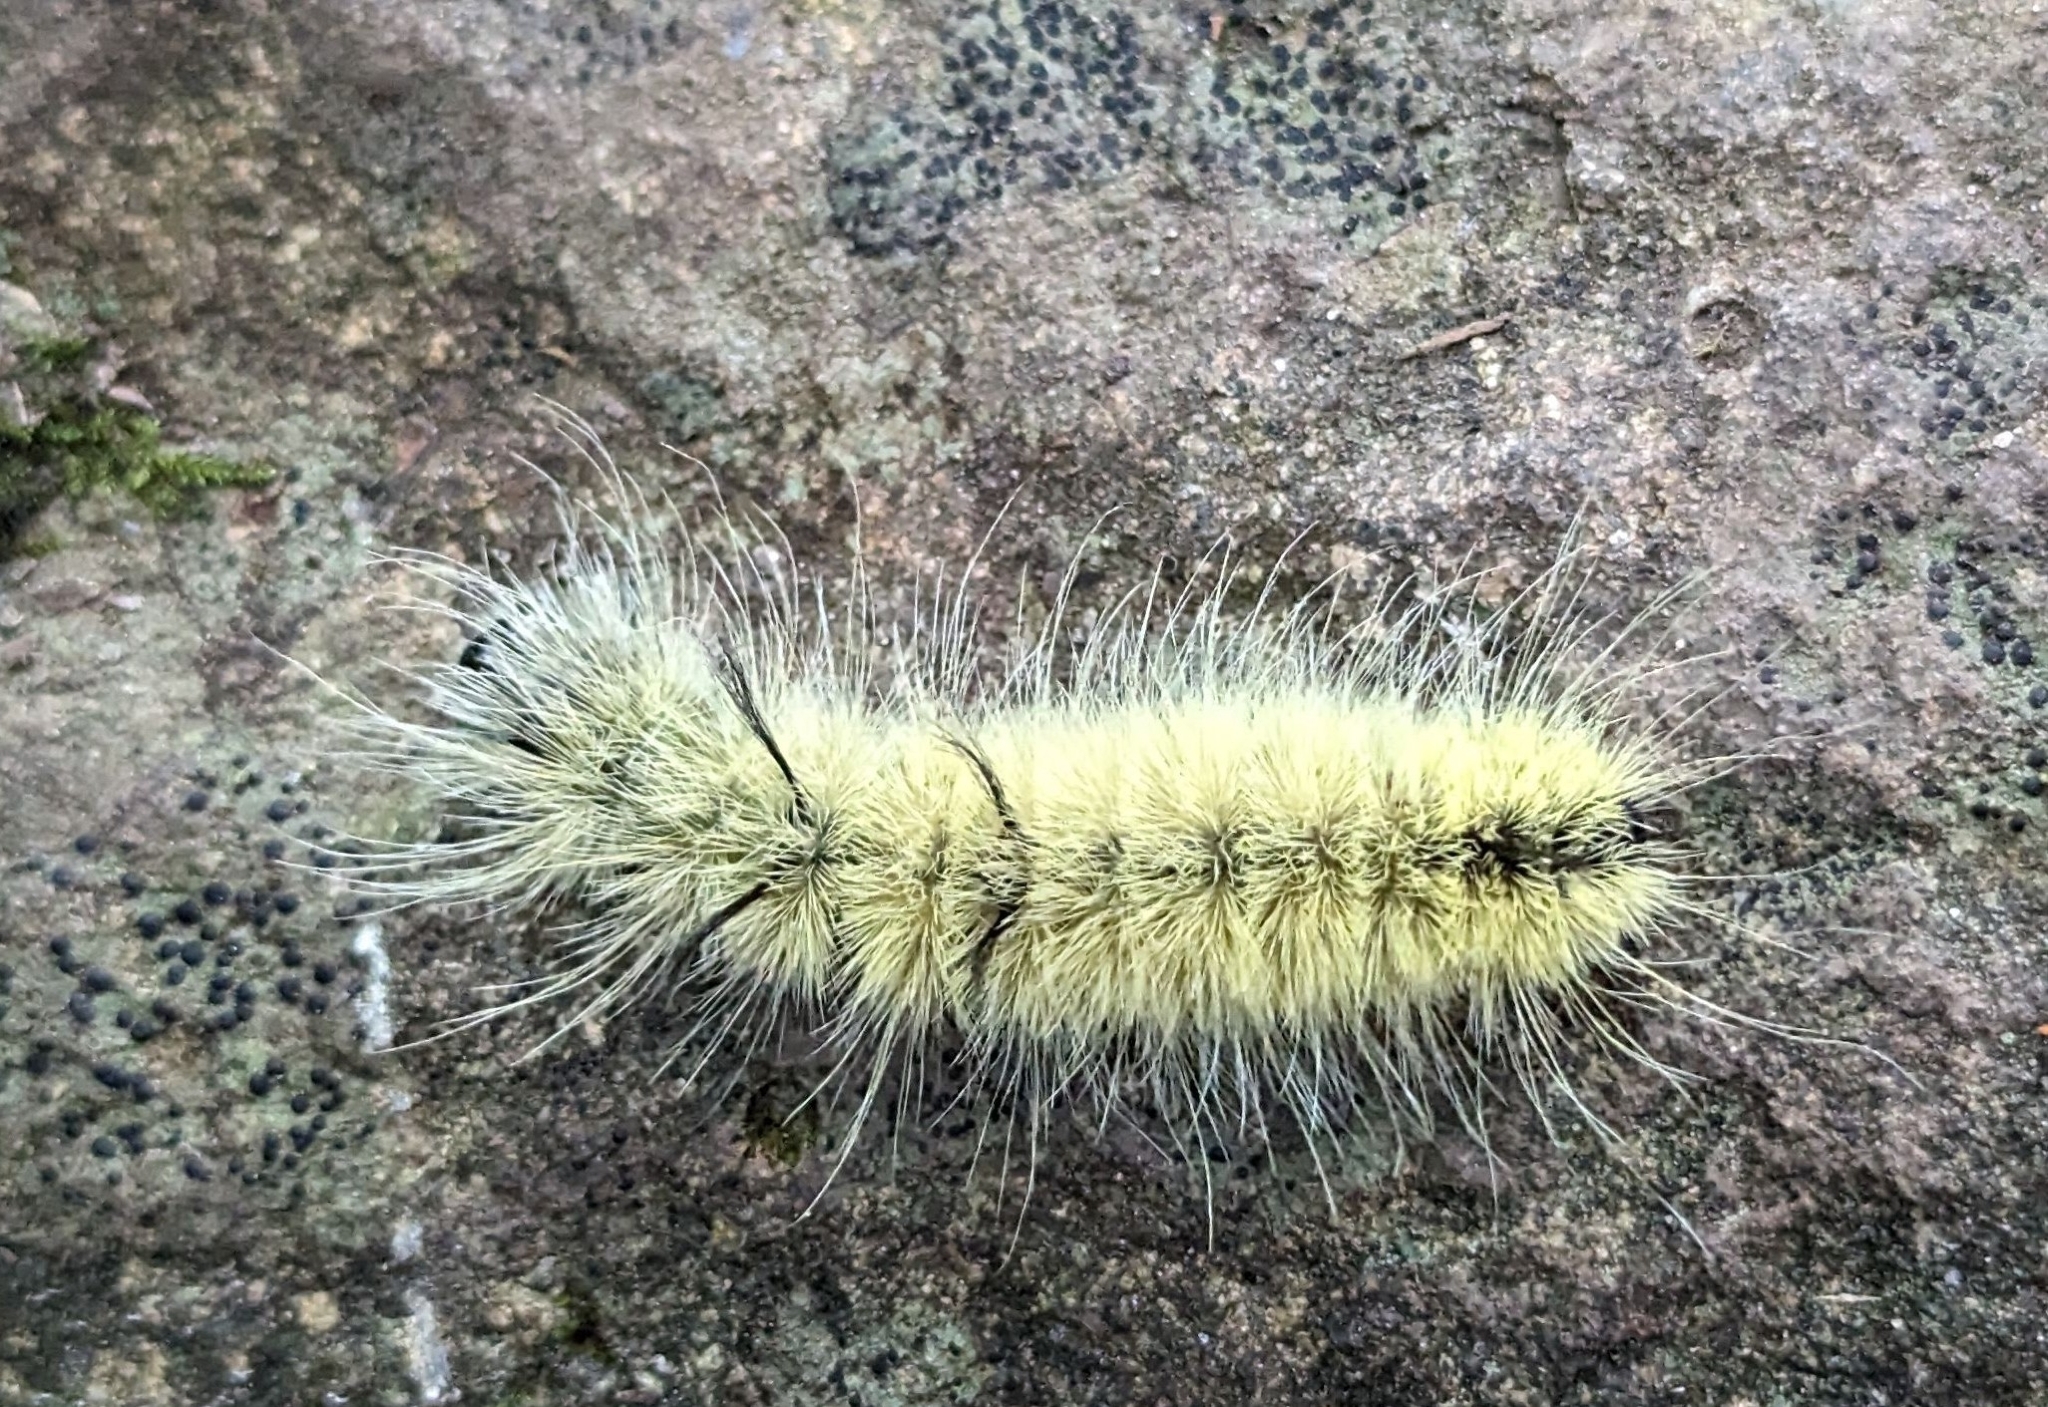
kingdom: Animalia
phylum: Arthropoda
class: Insecta
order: Lepidoptera
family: Noctuidae
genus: Acronicta
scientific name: Acronicta americana
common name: American dagger
